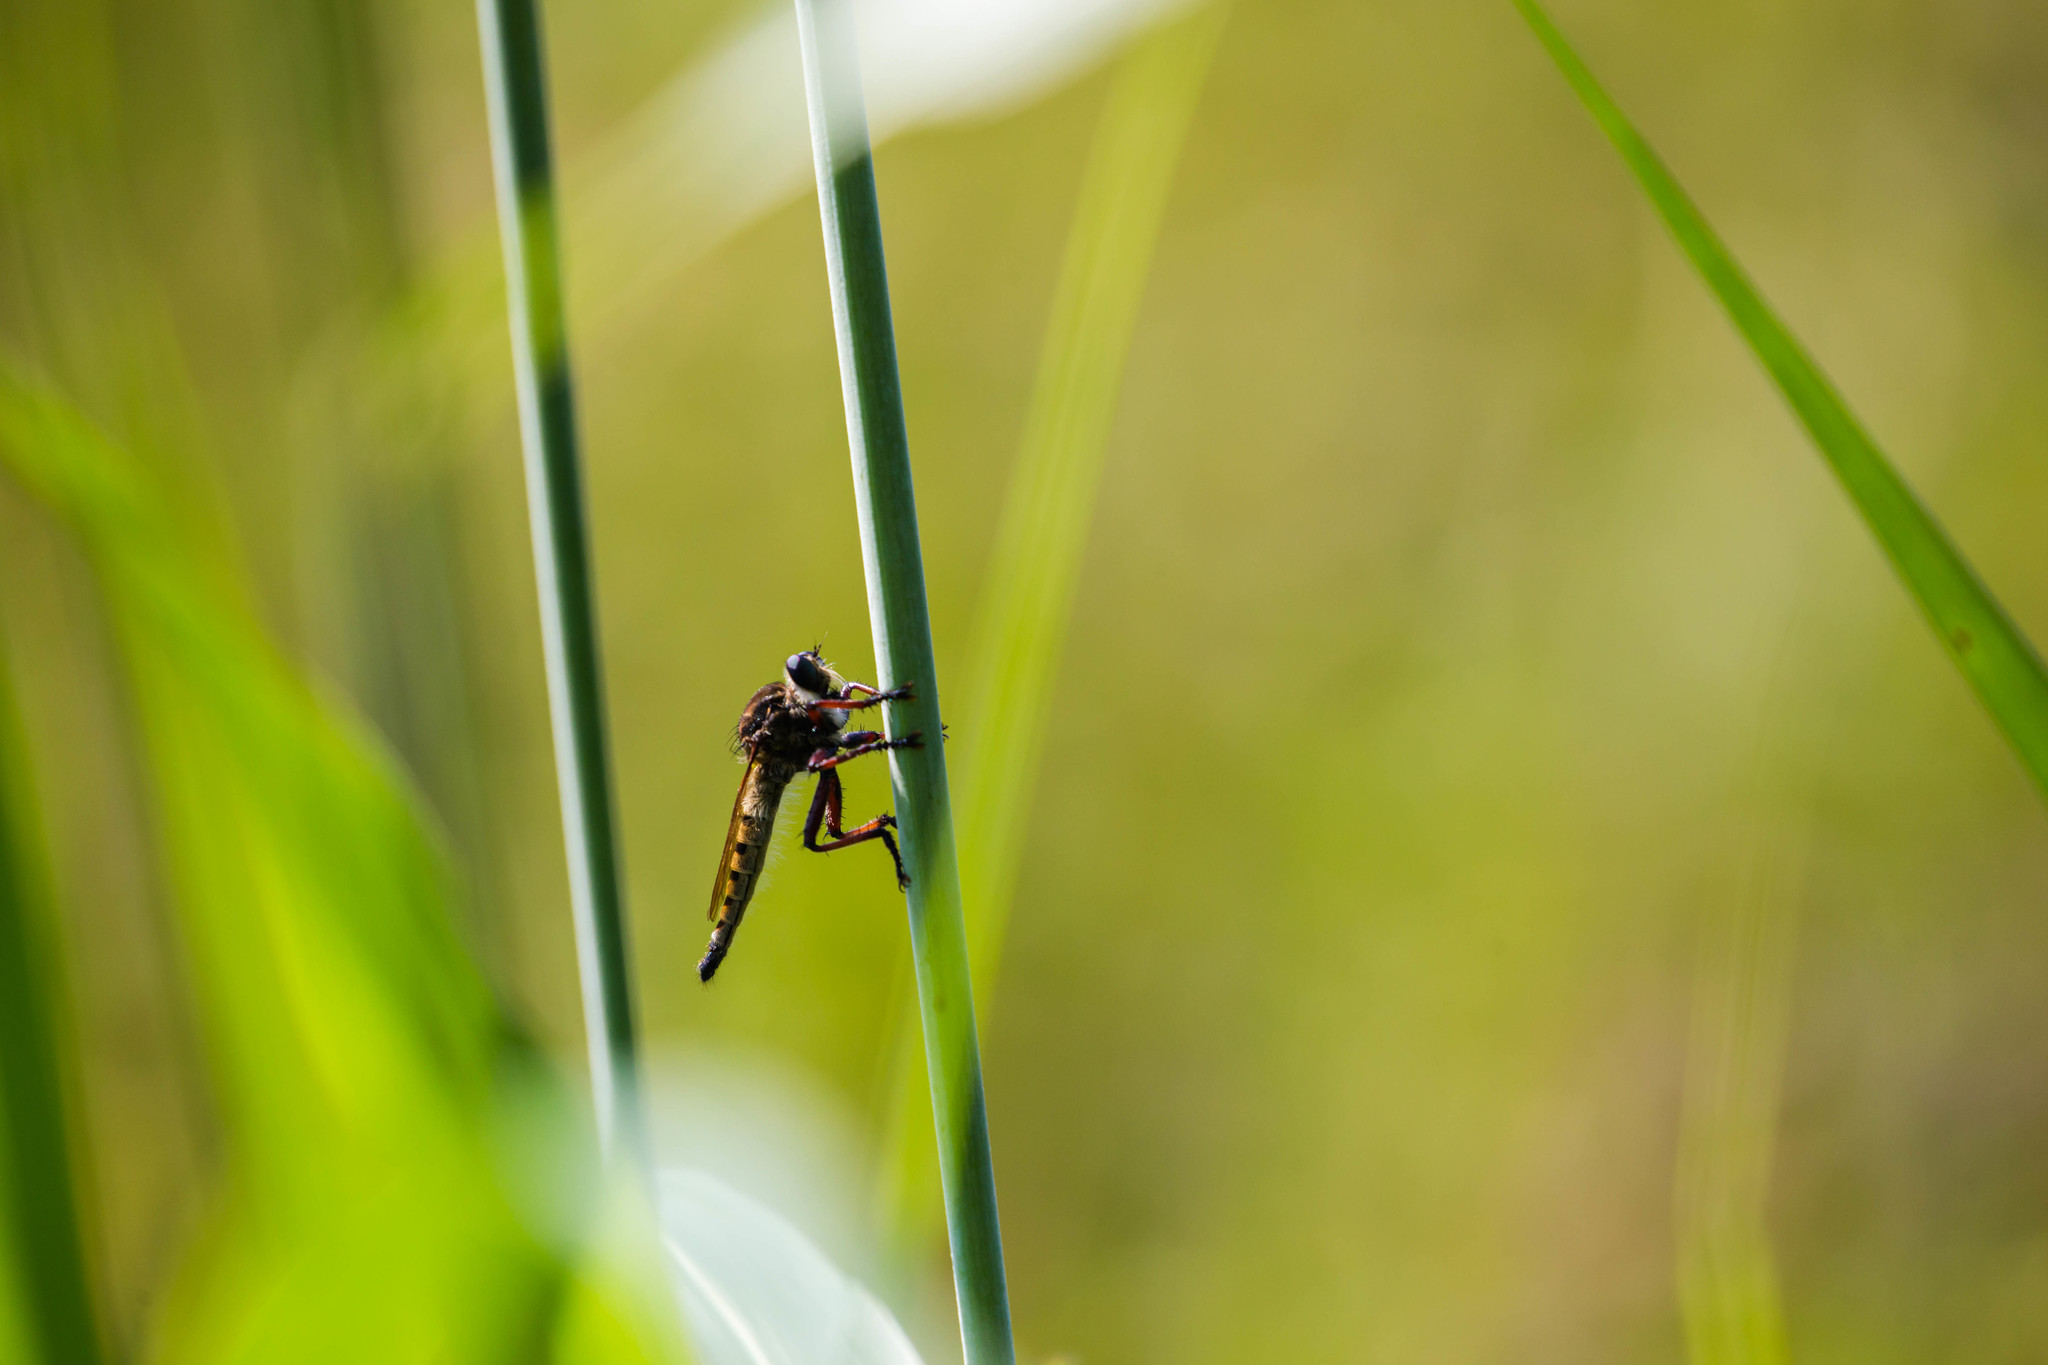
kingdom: Animalia
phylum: Arthropoda
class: Insecta
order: Diptera
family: Asilidae
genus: Promachus
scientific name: Promachus hinei
